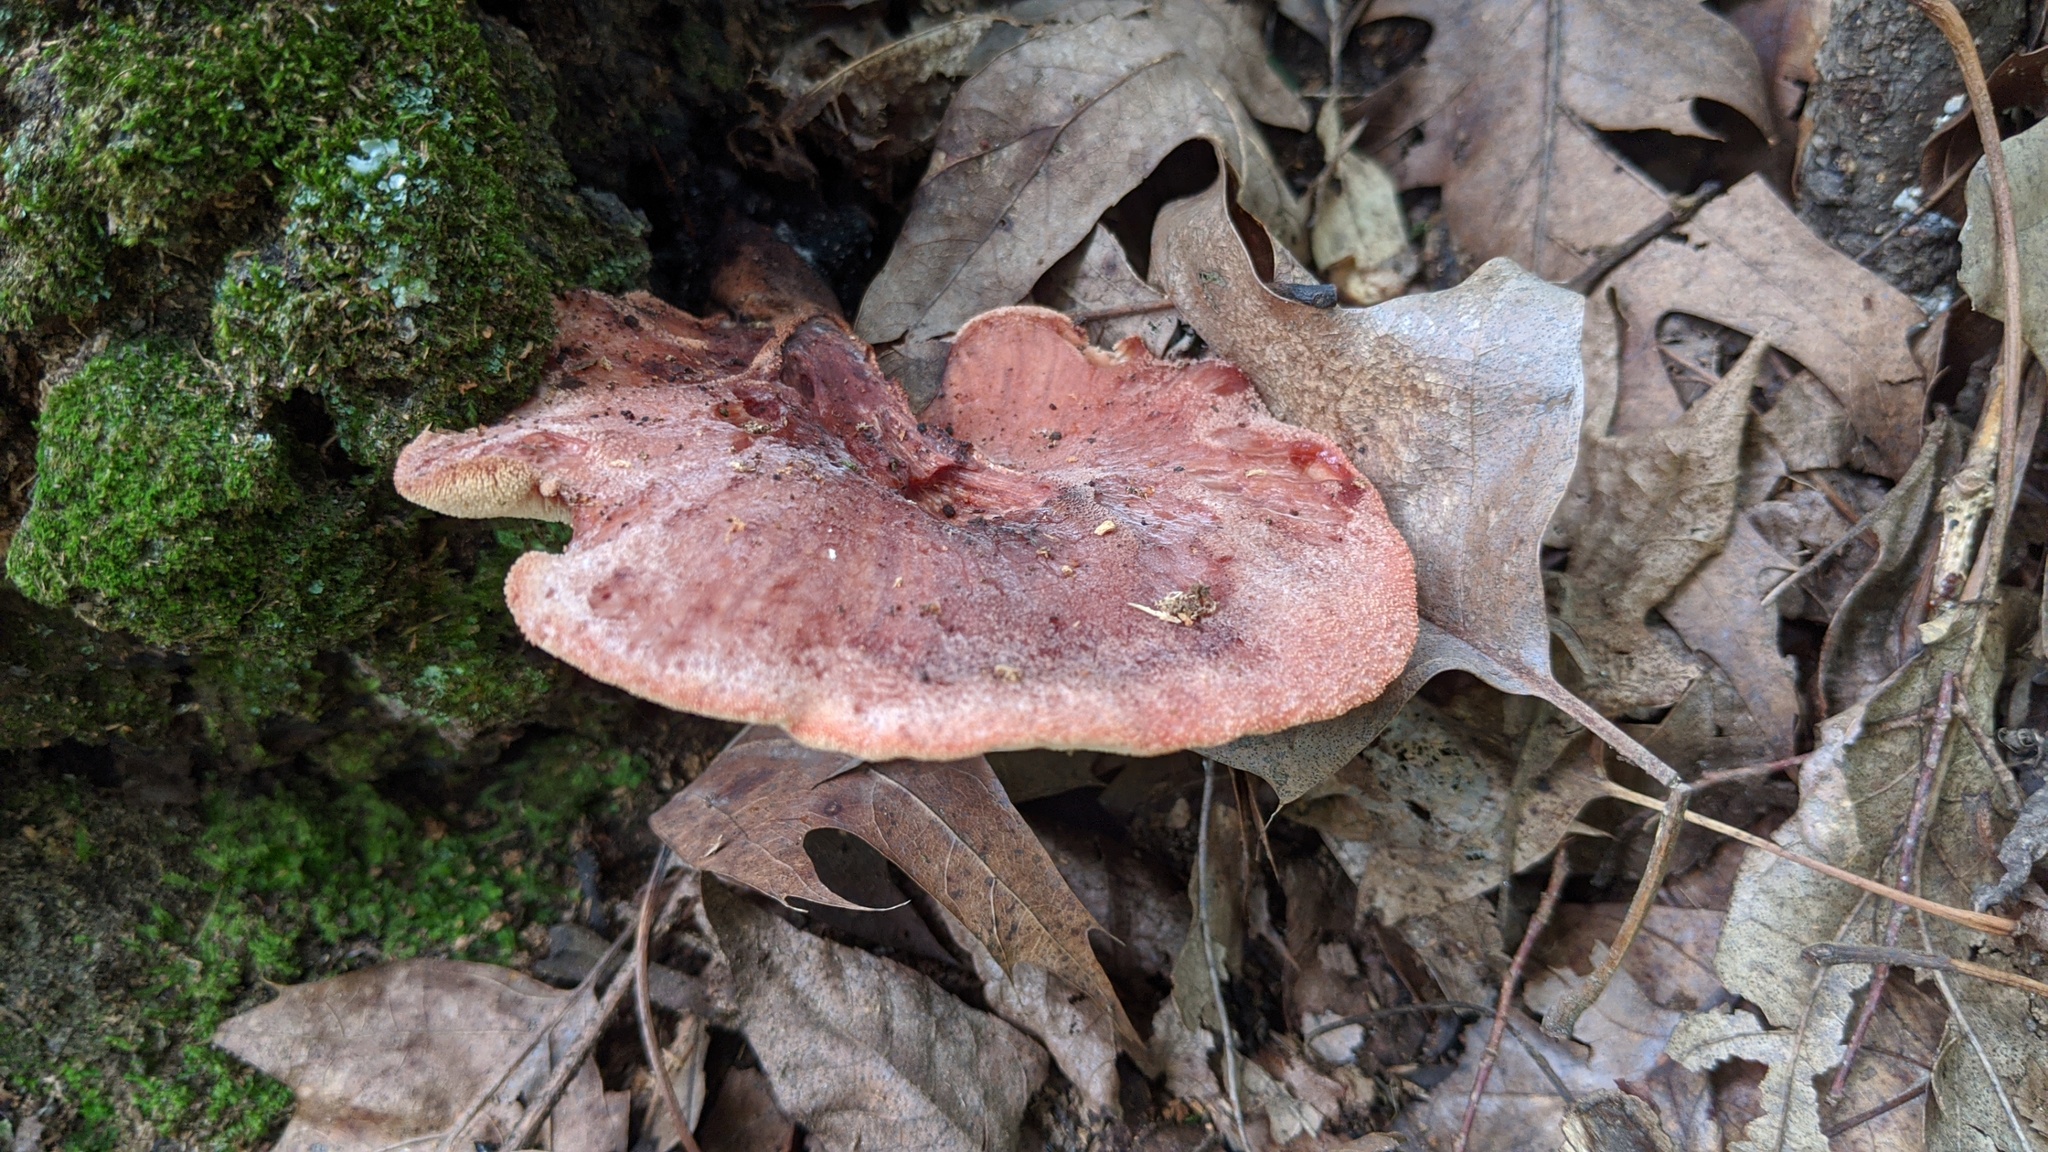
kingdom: Fungi
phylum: Basidiomycota
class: Agaricomycetes
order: Agaricales
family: Fistulinaceae
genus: Fistulina
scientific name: Fistulina hepatica
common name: Beef-steak fungus
